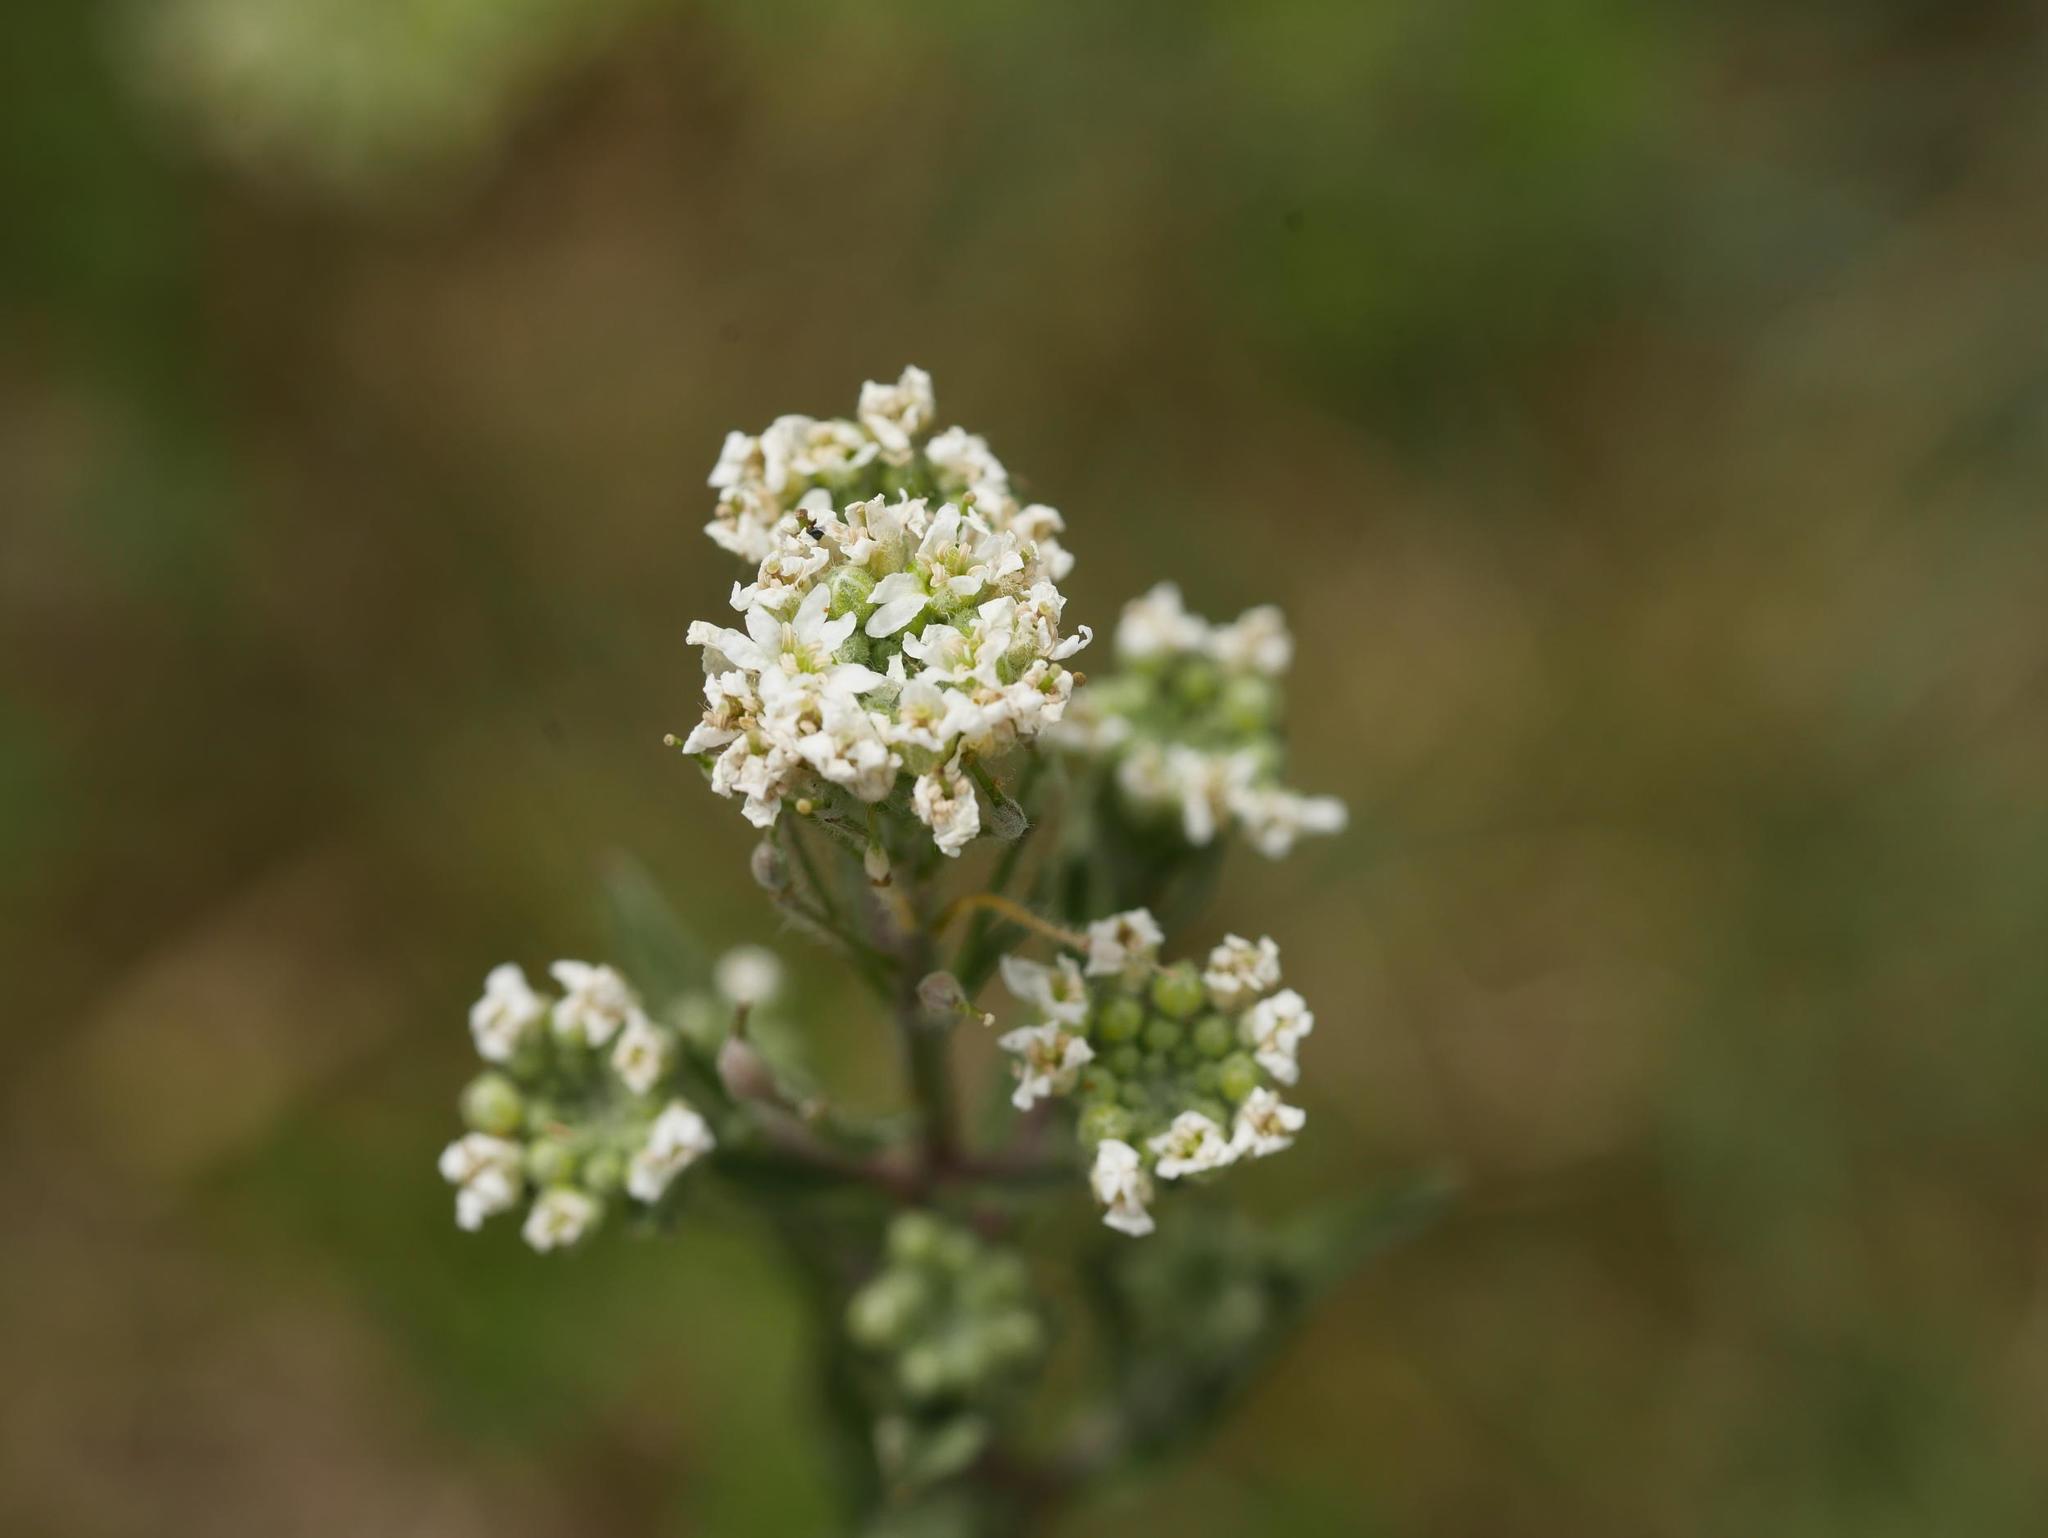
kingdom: Plantae
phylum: Tracheophyta
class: Magnoliopsida
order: Brassicales
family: Brassicaceae
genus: Berteroa
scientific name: Berteroa incana
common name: Hoary alison
